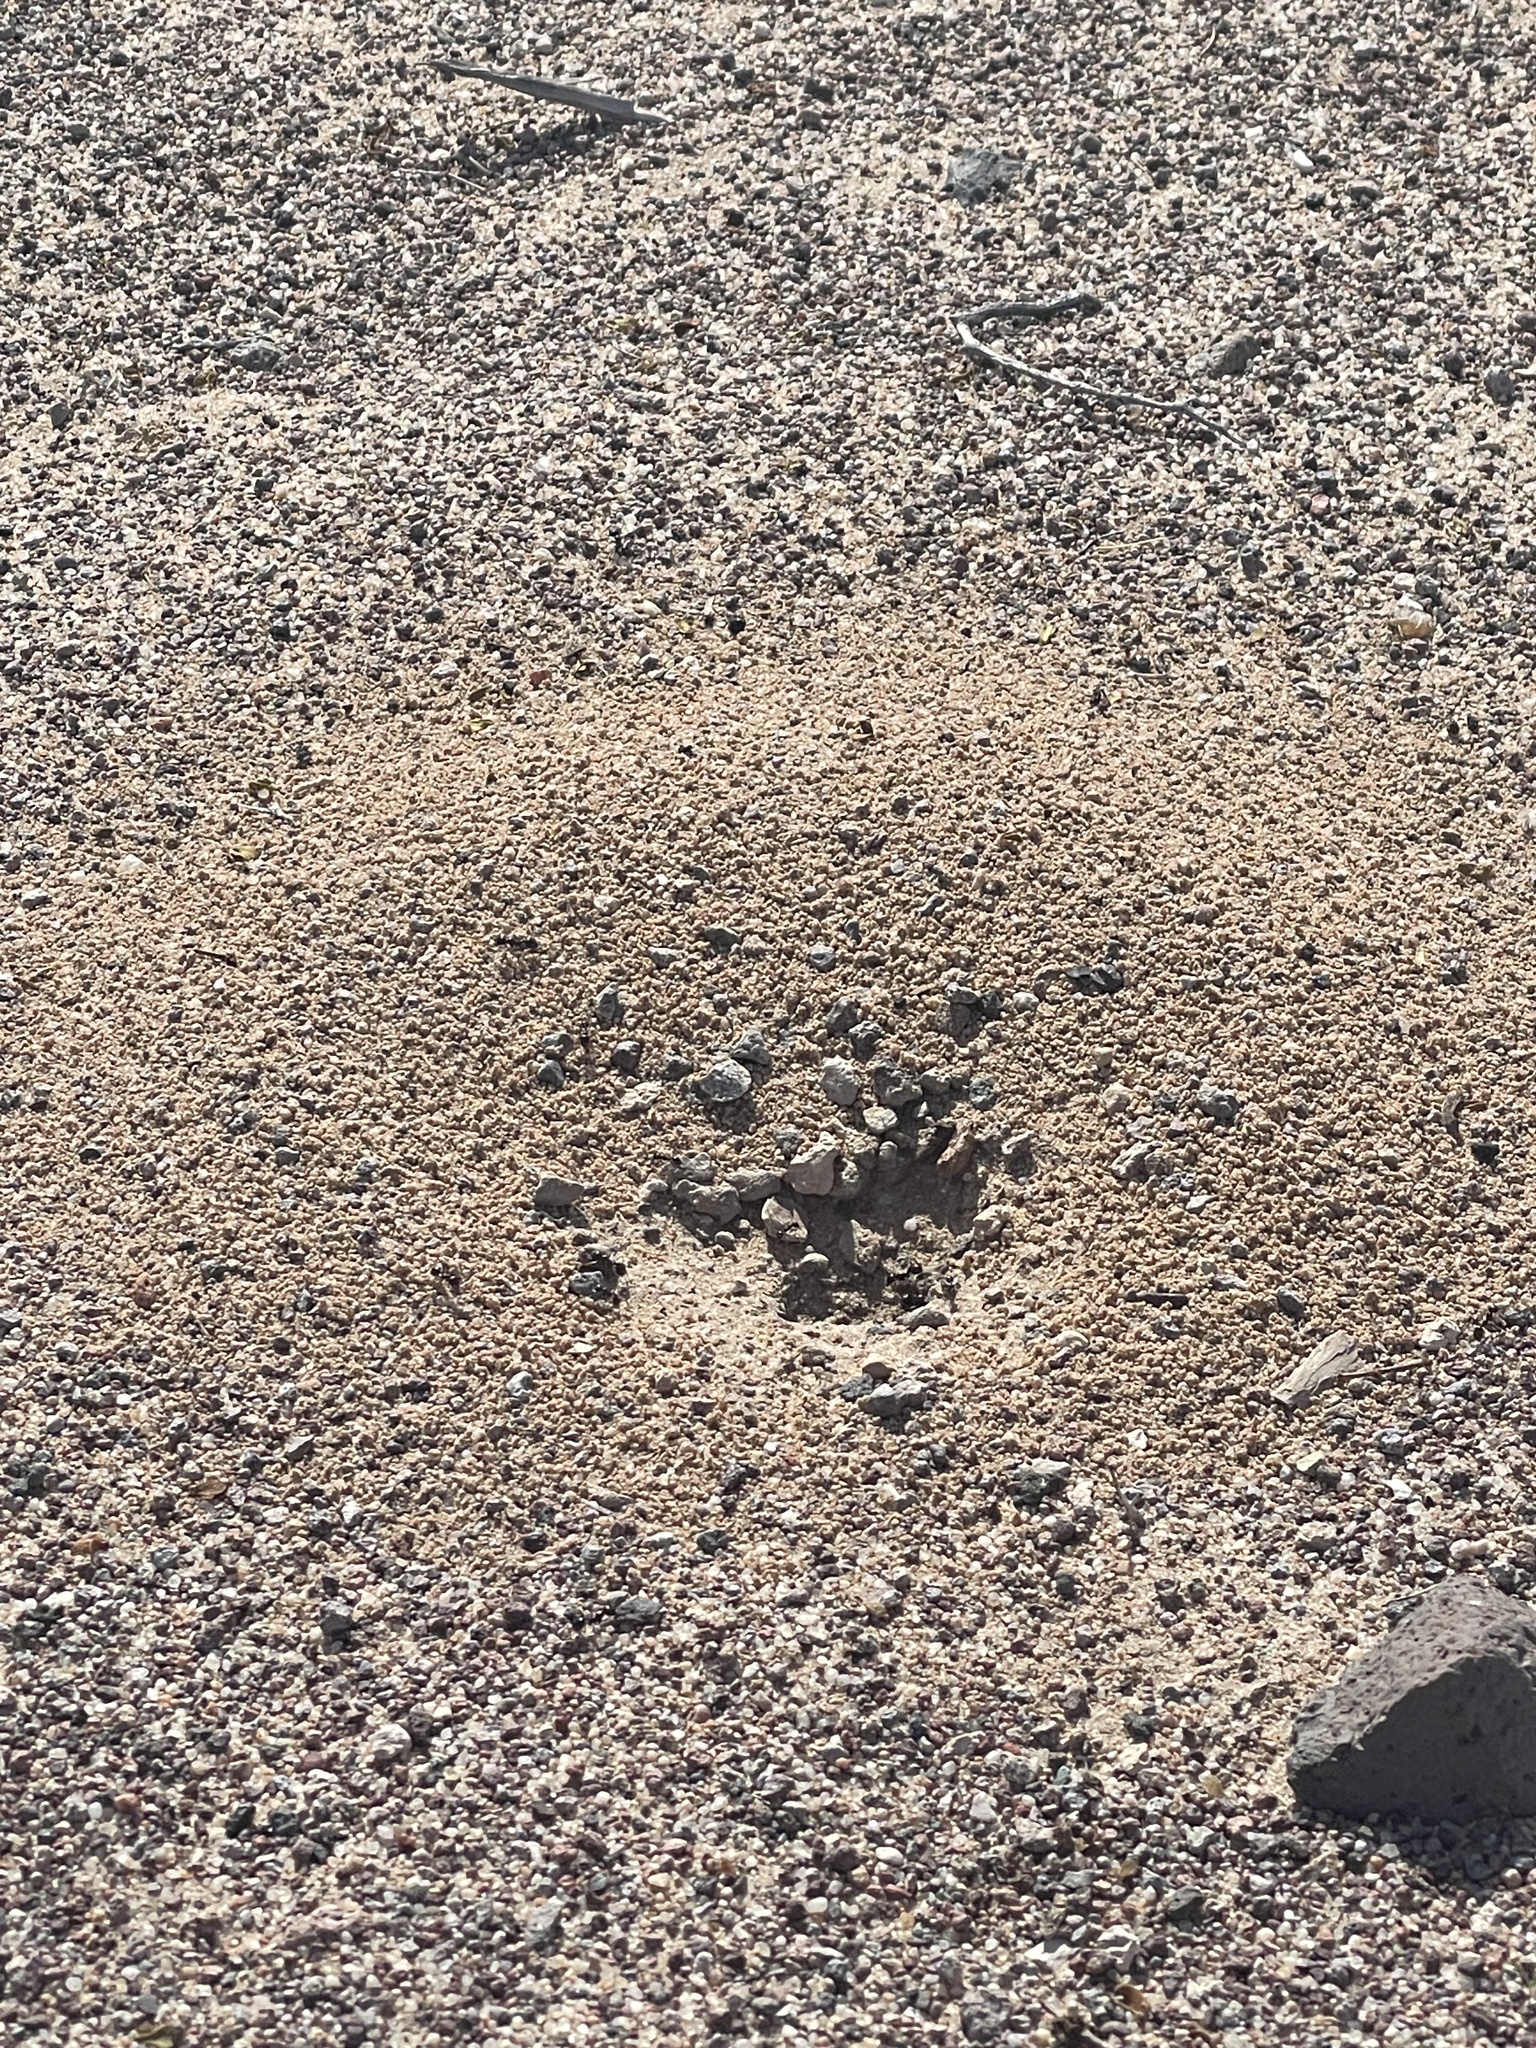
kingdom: Animalia
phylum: Arthropoda
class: Insecta
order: Hymenoptera
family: Formicidae
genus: Messor
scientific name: Messor pergandei
